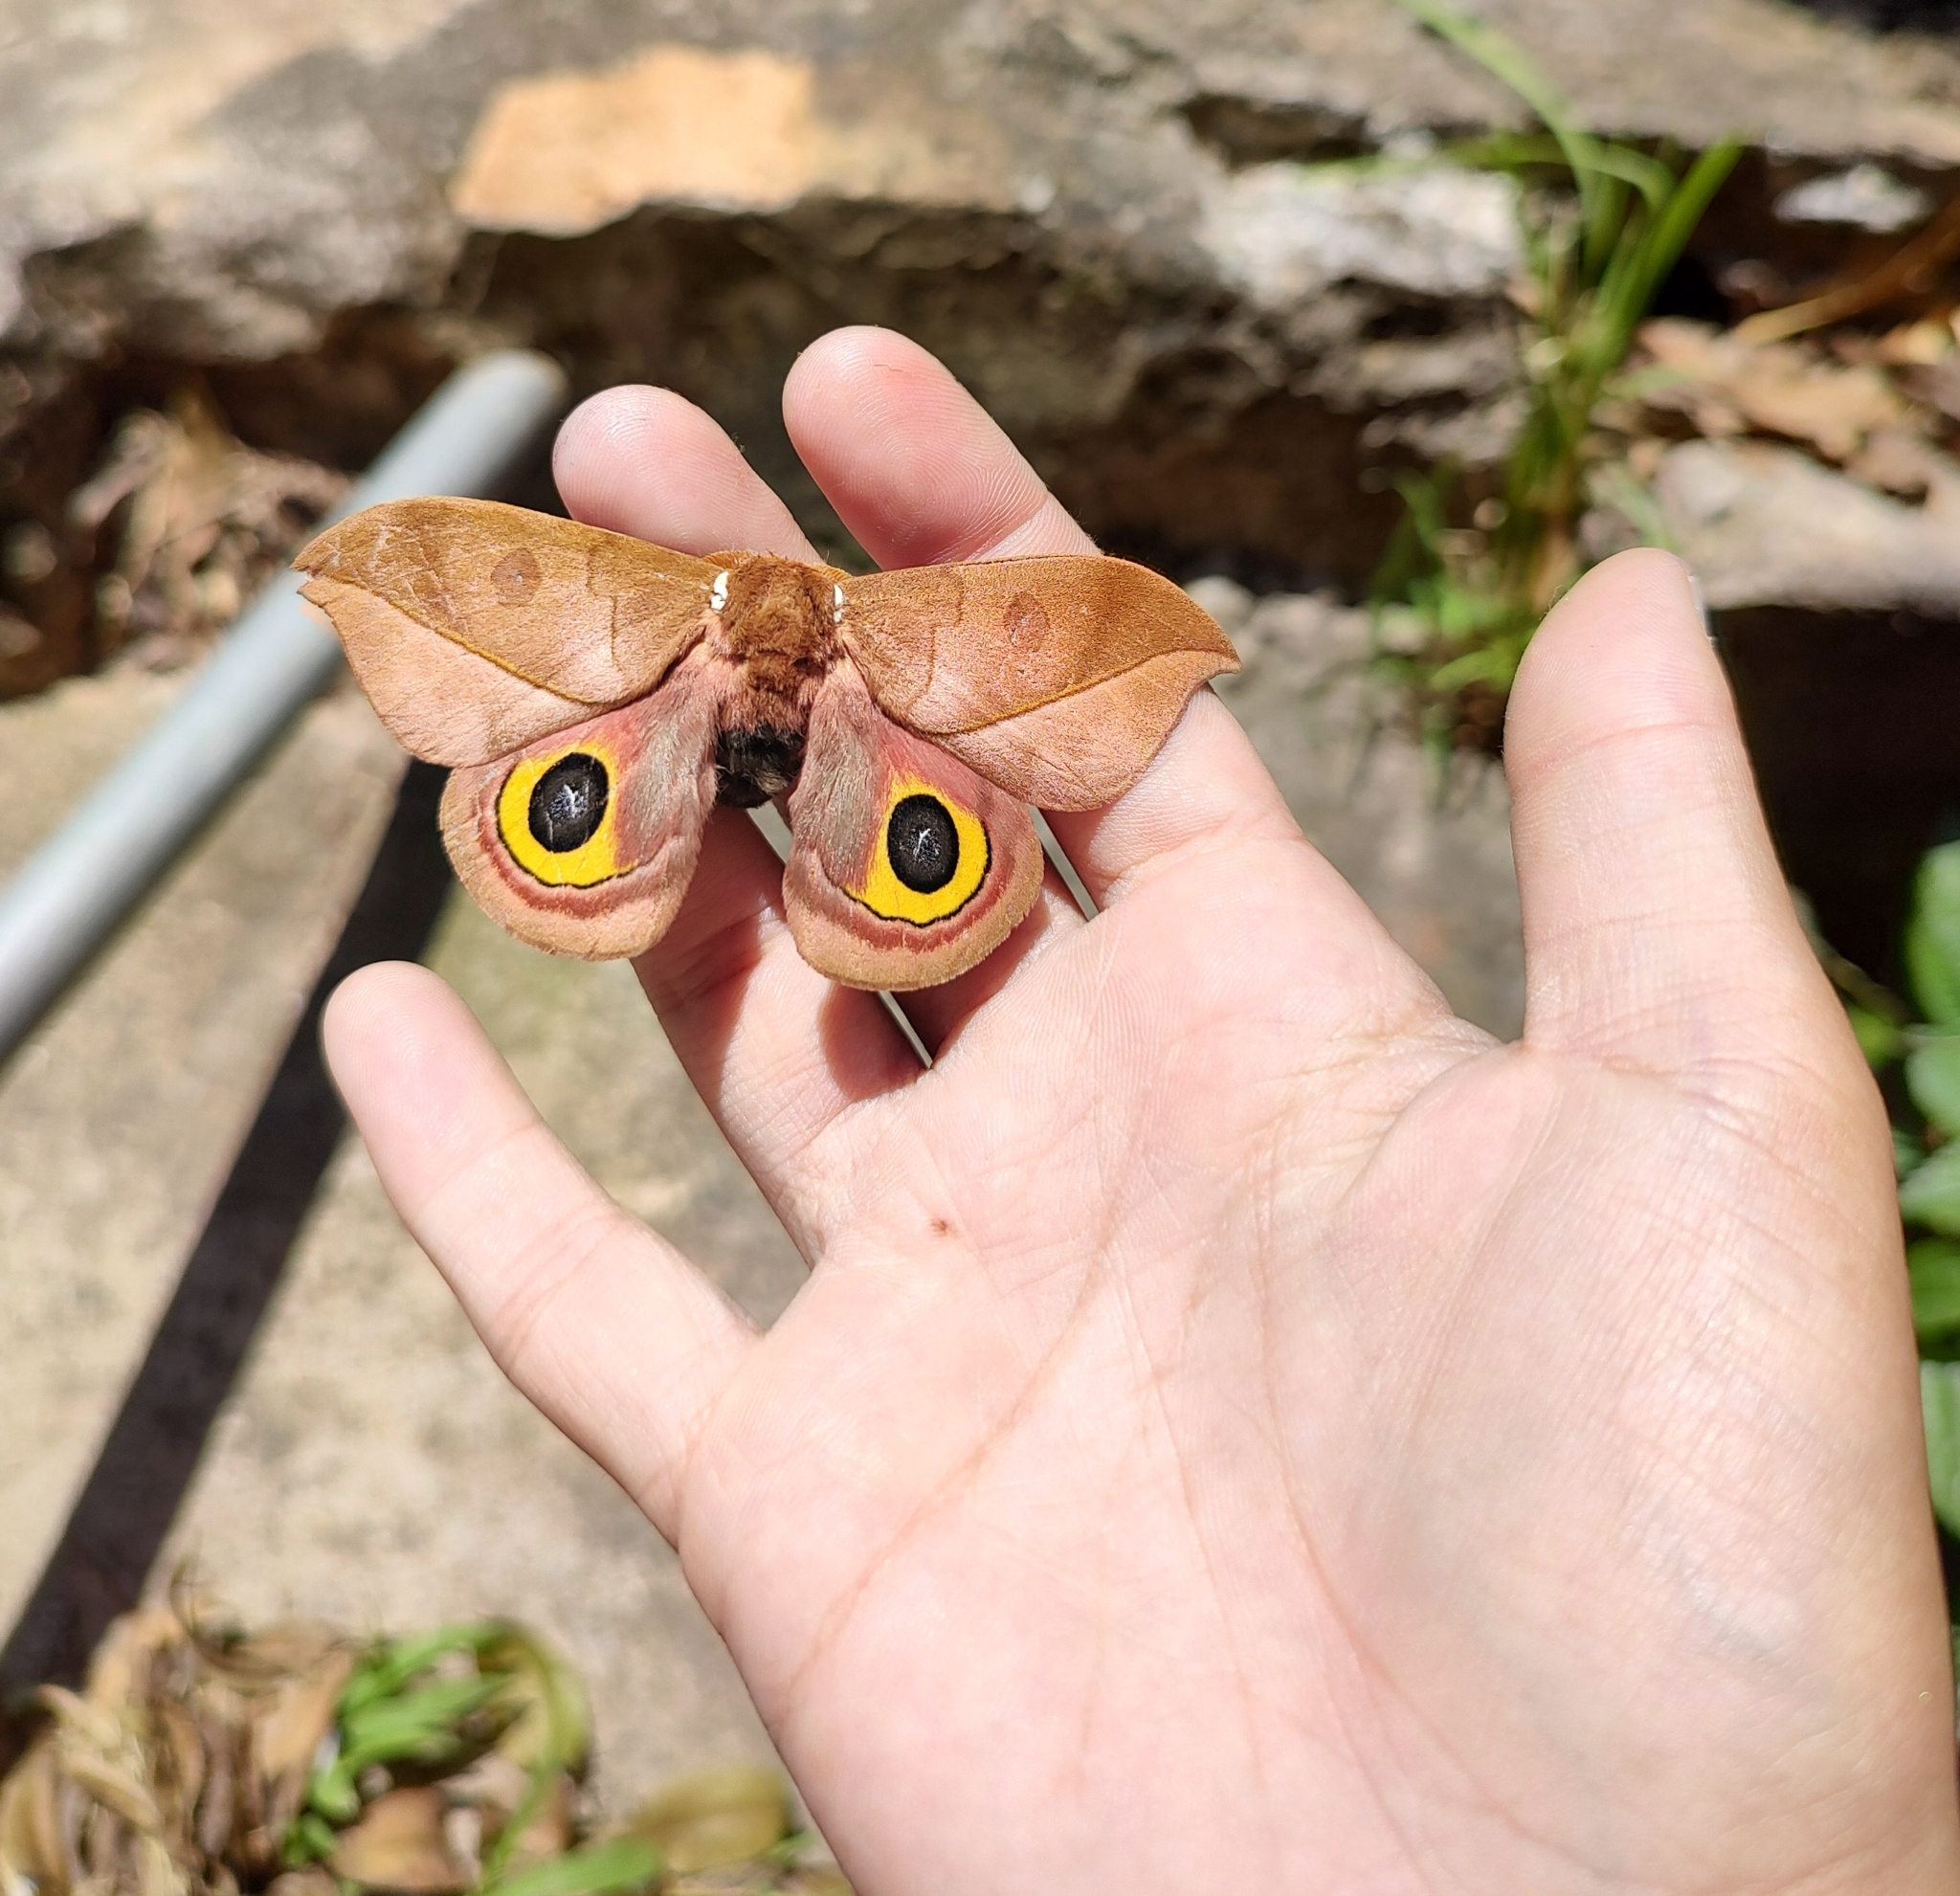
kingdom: Animalia
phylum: Arthropoda
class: Insecta
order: Lepidoptera
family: Saturniidae
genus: Automeris
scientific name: Automeris melanops
